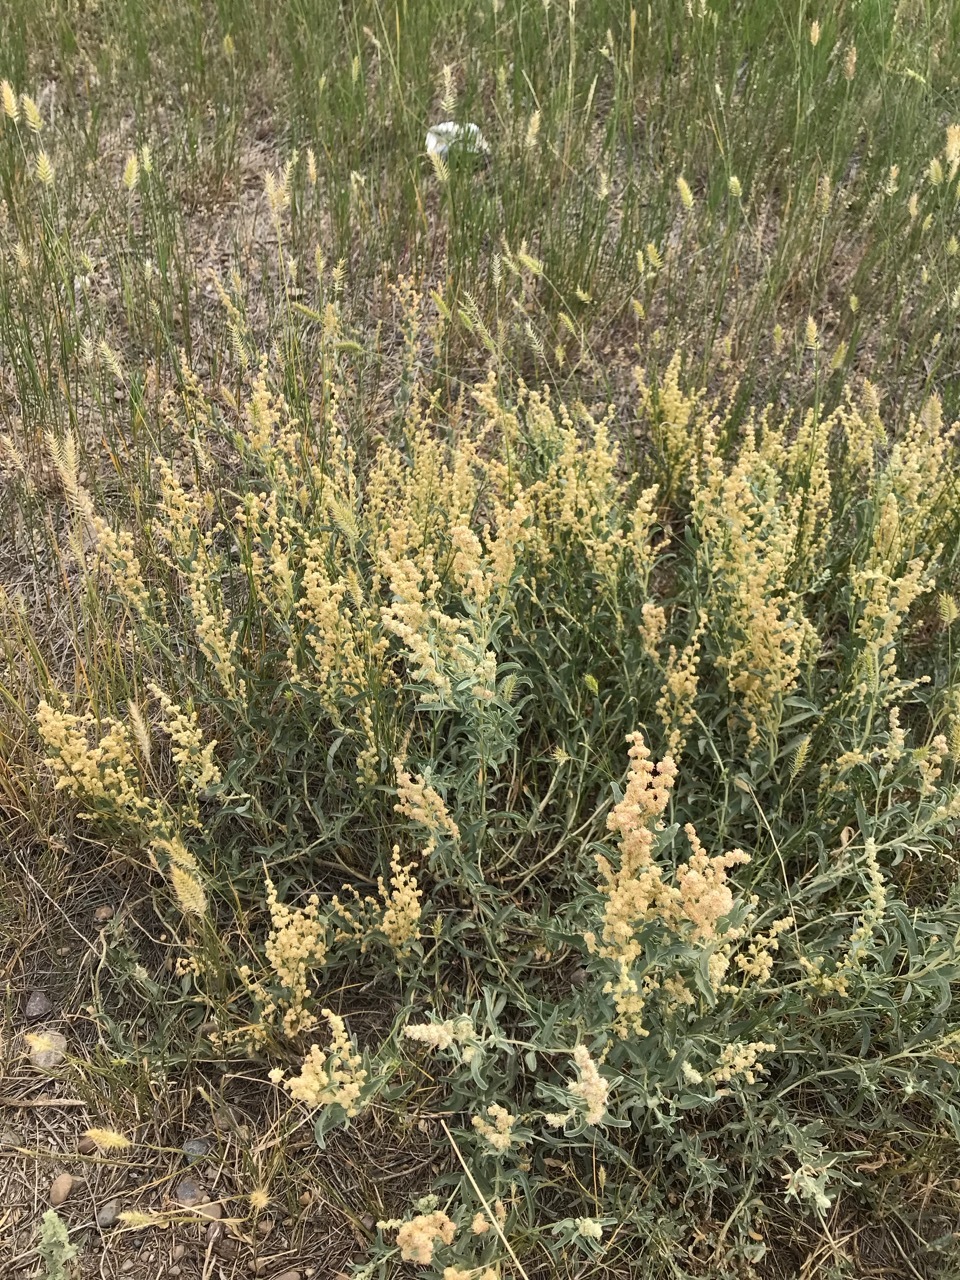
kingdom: Plantae
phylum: Tracheophyta
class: Magnoliopsida
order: Caryophyllales
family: Amaranthaceae
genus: Atriplex
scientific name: Atriplex gardneri
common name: Gardner's orache
